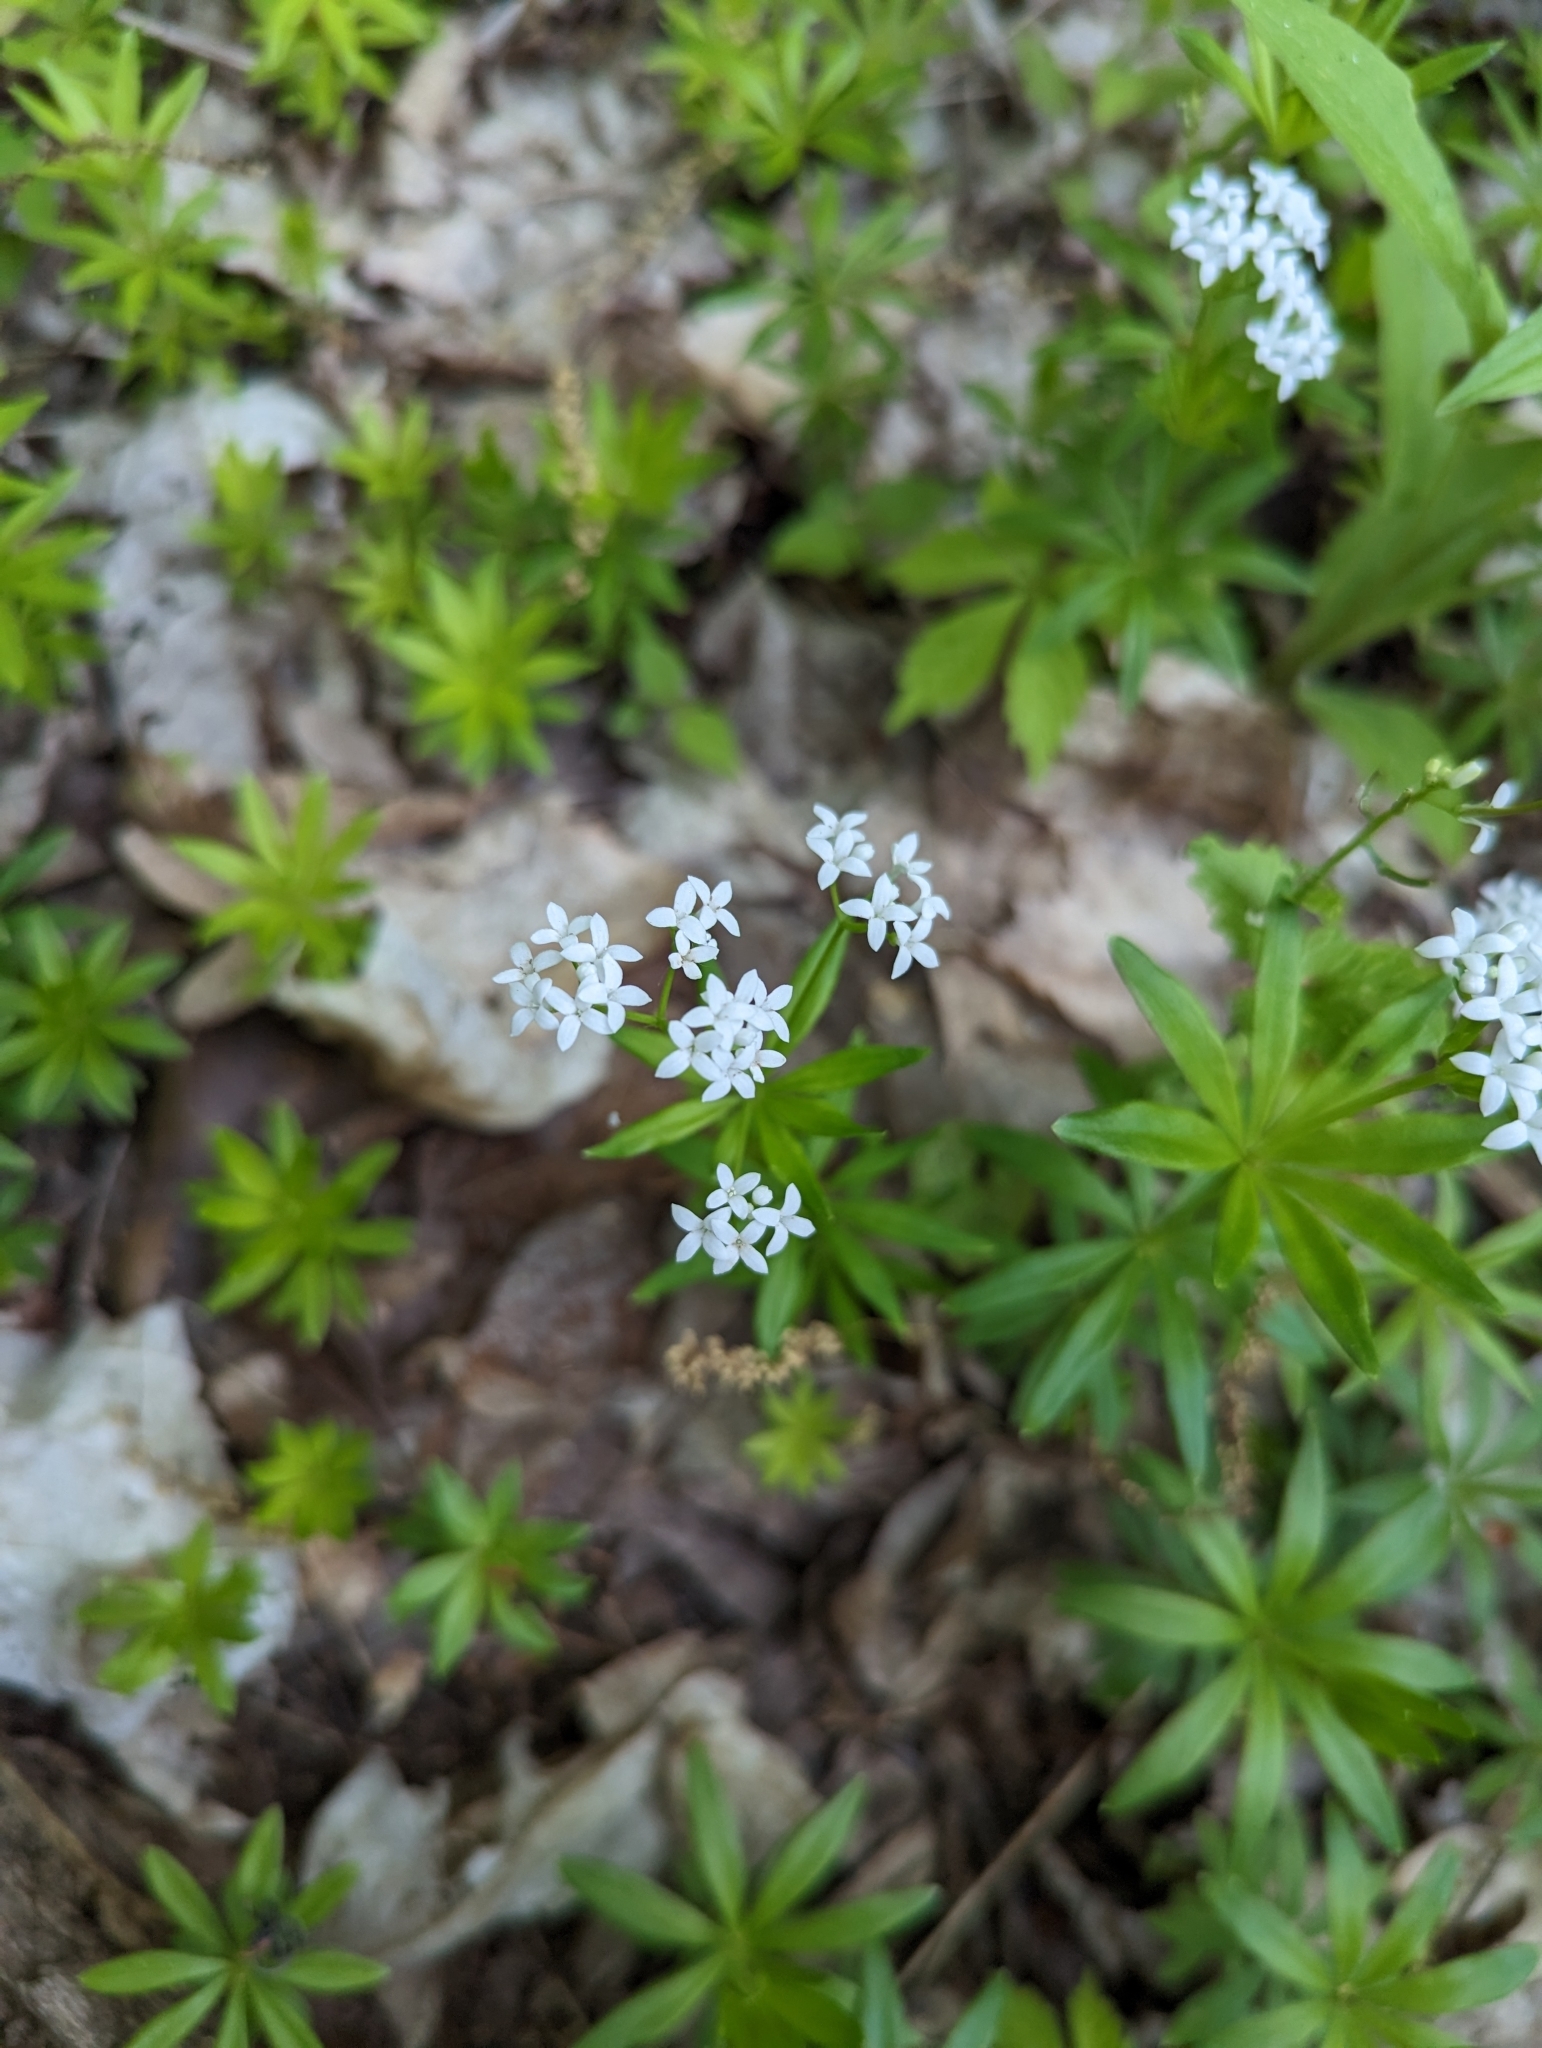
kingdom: Plantae
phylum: Tracheophyta
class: Magnoliopsida
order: Gentianales
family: Rubiaceae
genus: Galium
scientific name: Galium odoratum
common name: Sweet woodruff
